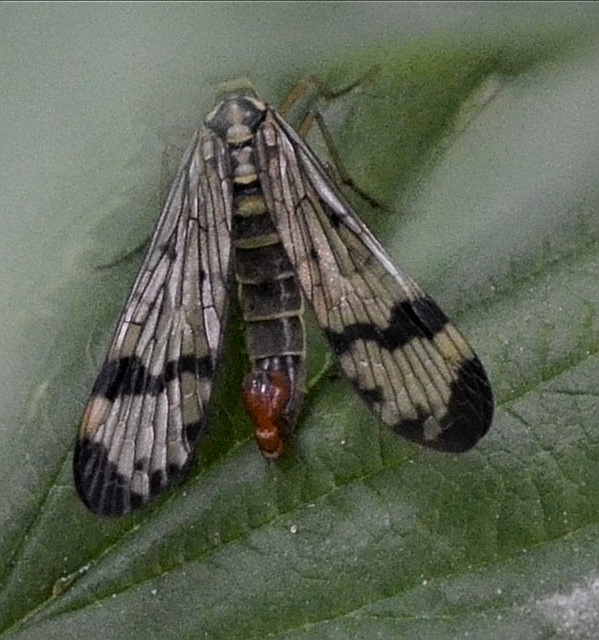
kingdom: Animalia
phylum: Arthropoda
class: Insecta
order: Mecoptera
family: Panorpidae
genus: Panorpa
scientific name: Panorpa communis
